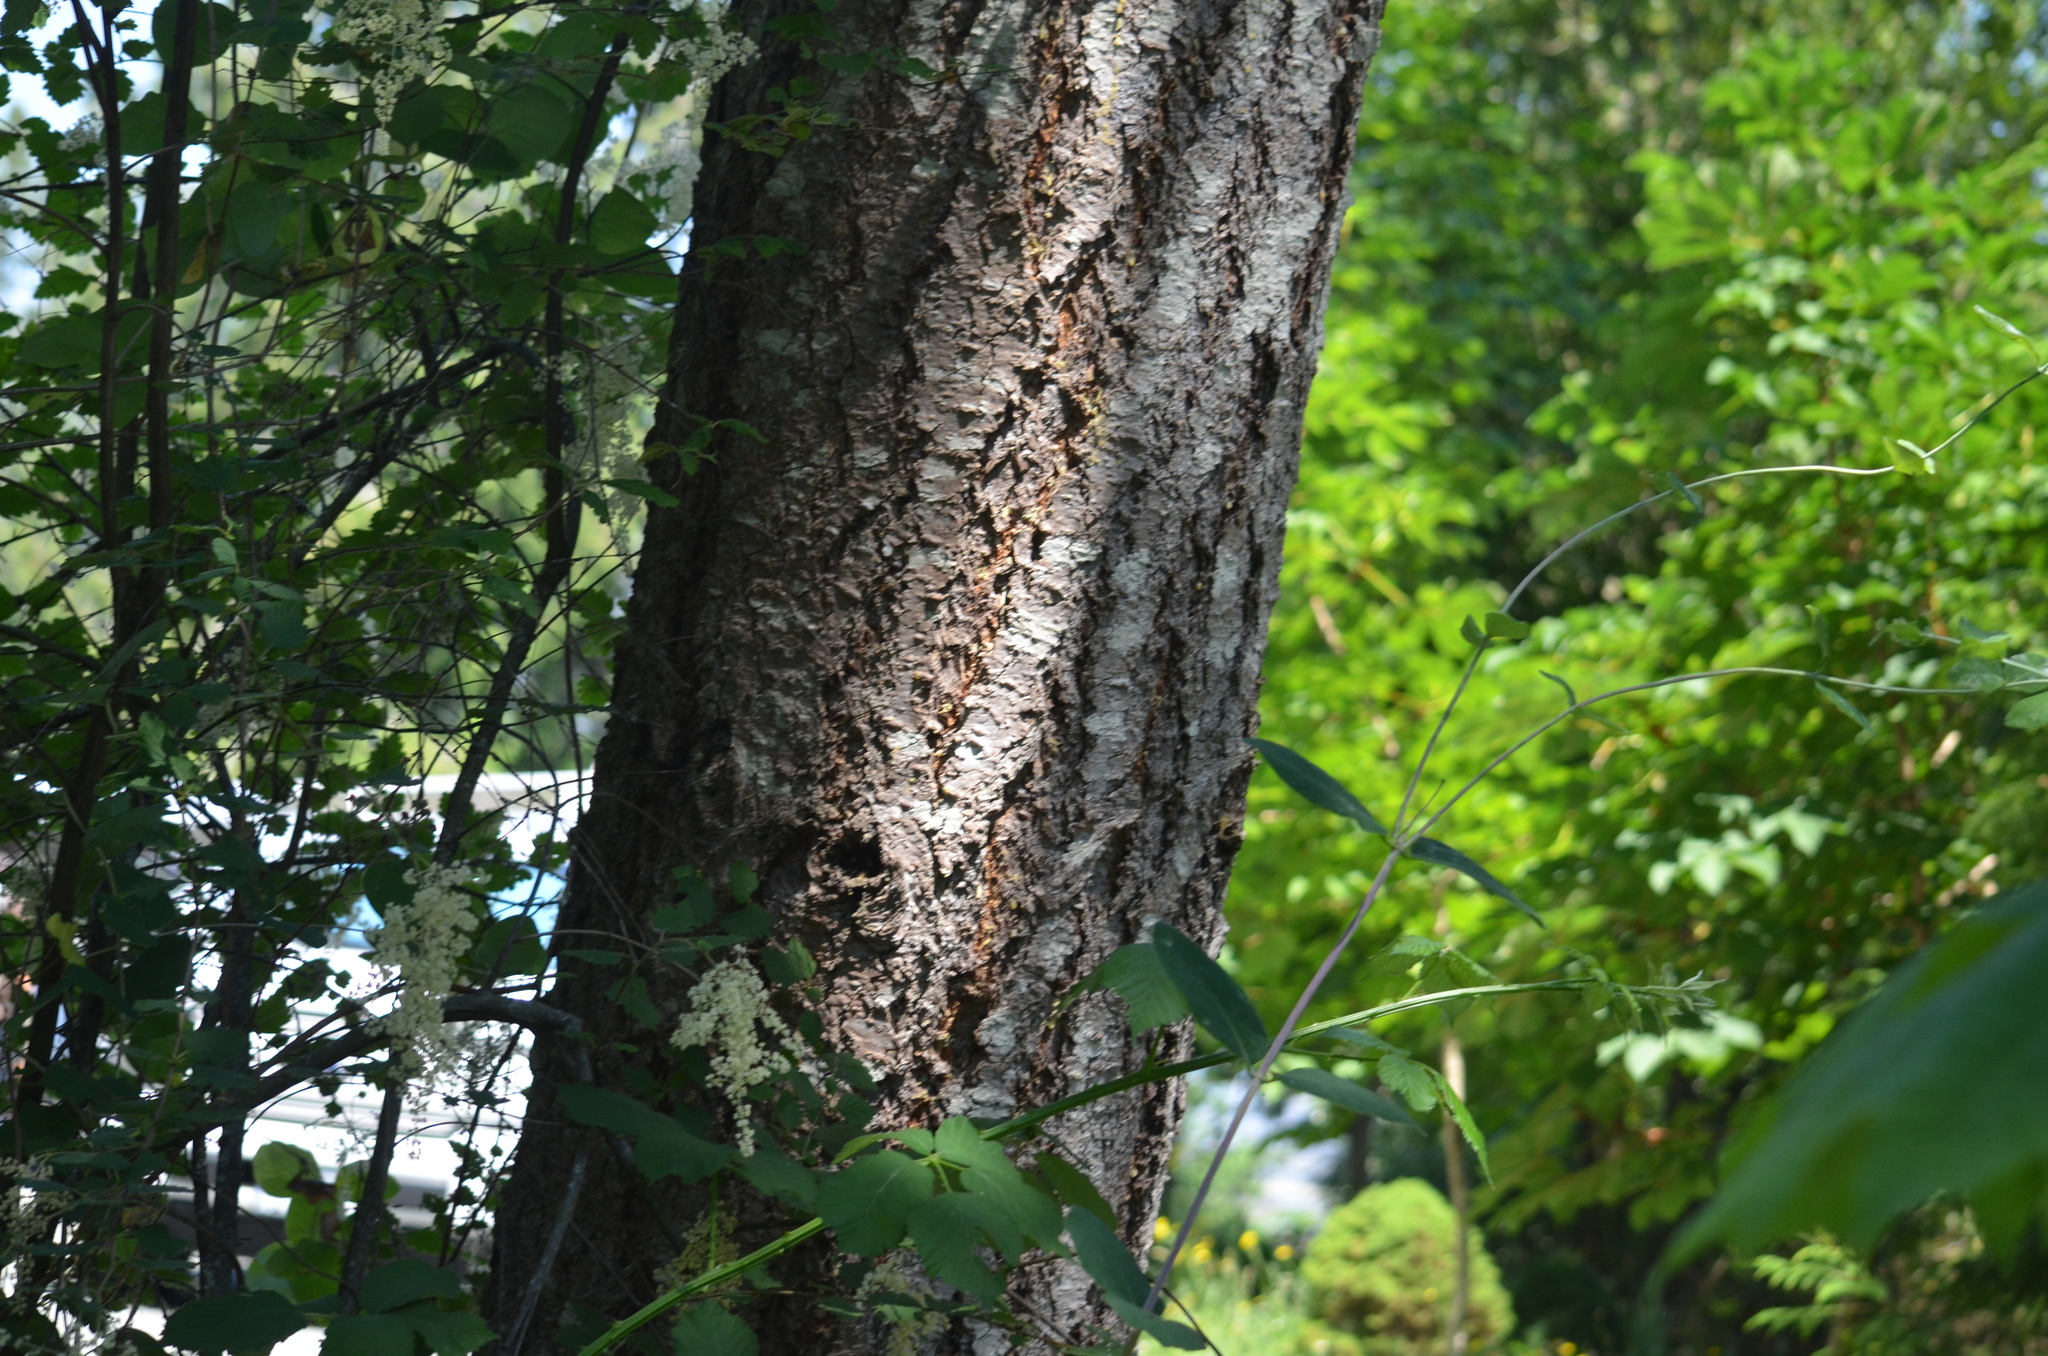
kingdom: Plantae
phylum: Tracheophyta
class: Pinopsida
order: Pinales
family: Pinaceae
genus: Pseudotsuga
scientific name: Pseudotsuga menziesii
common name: Douglas fir
